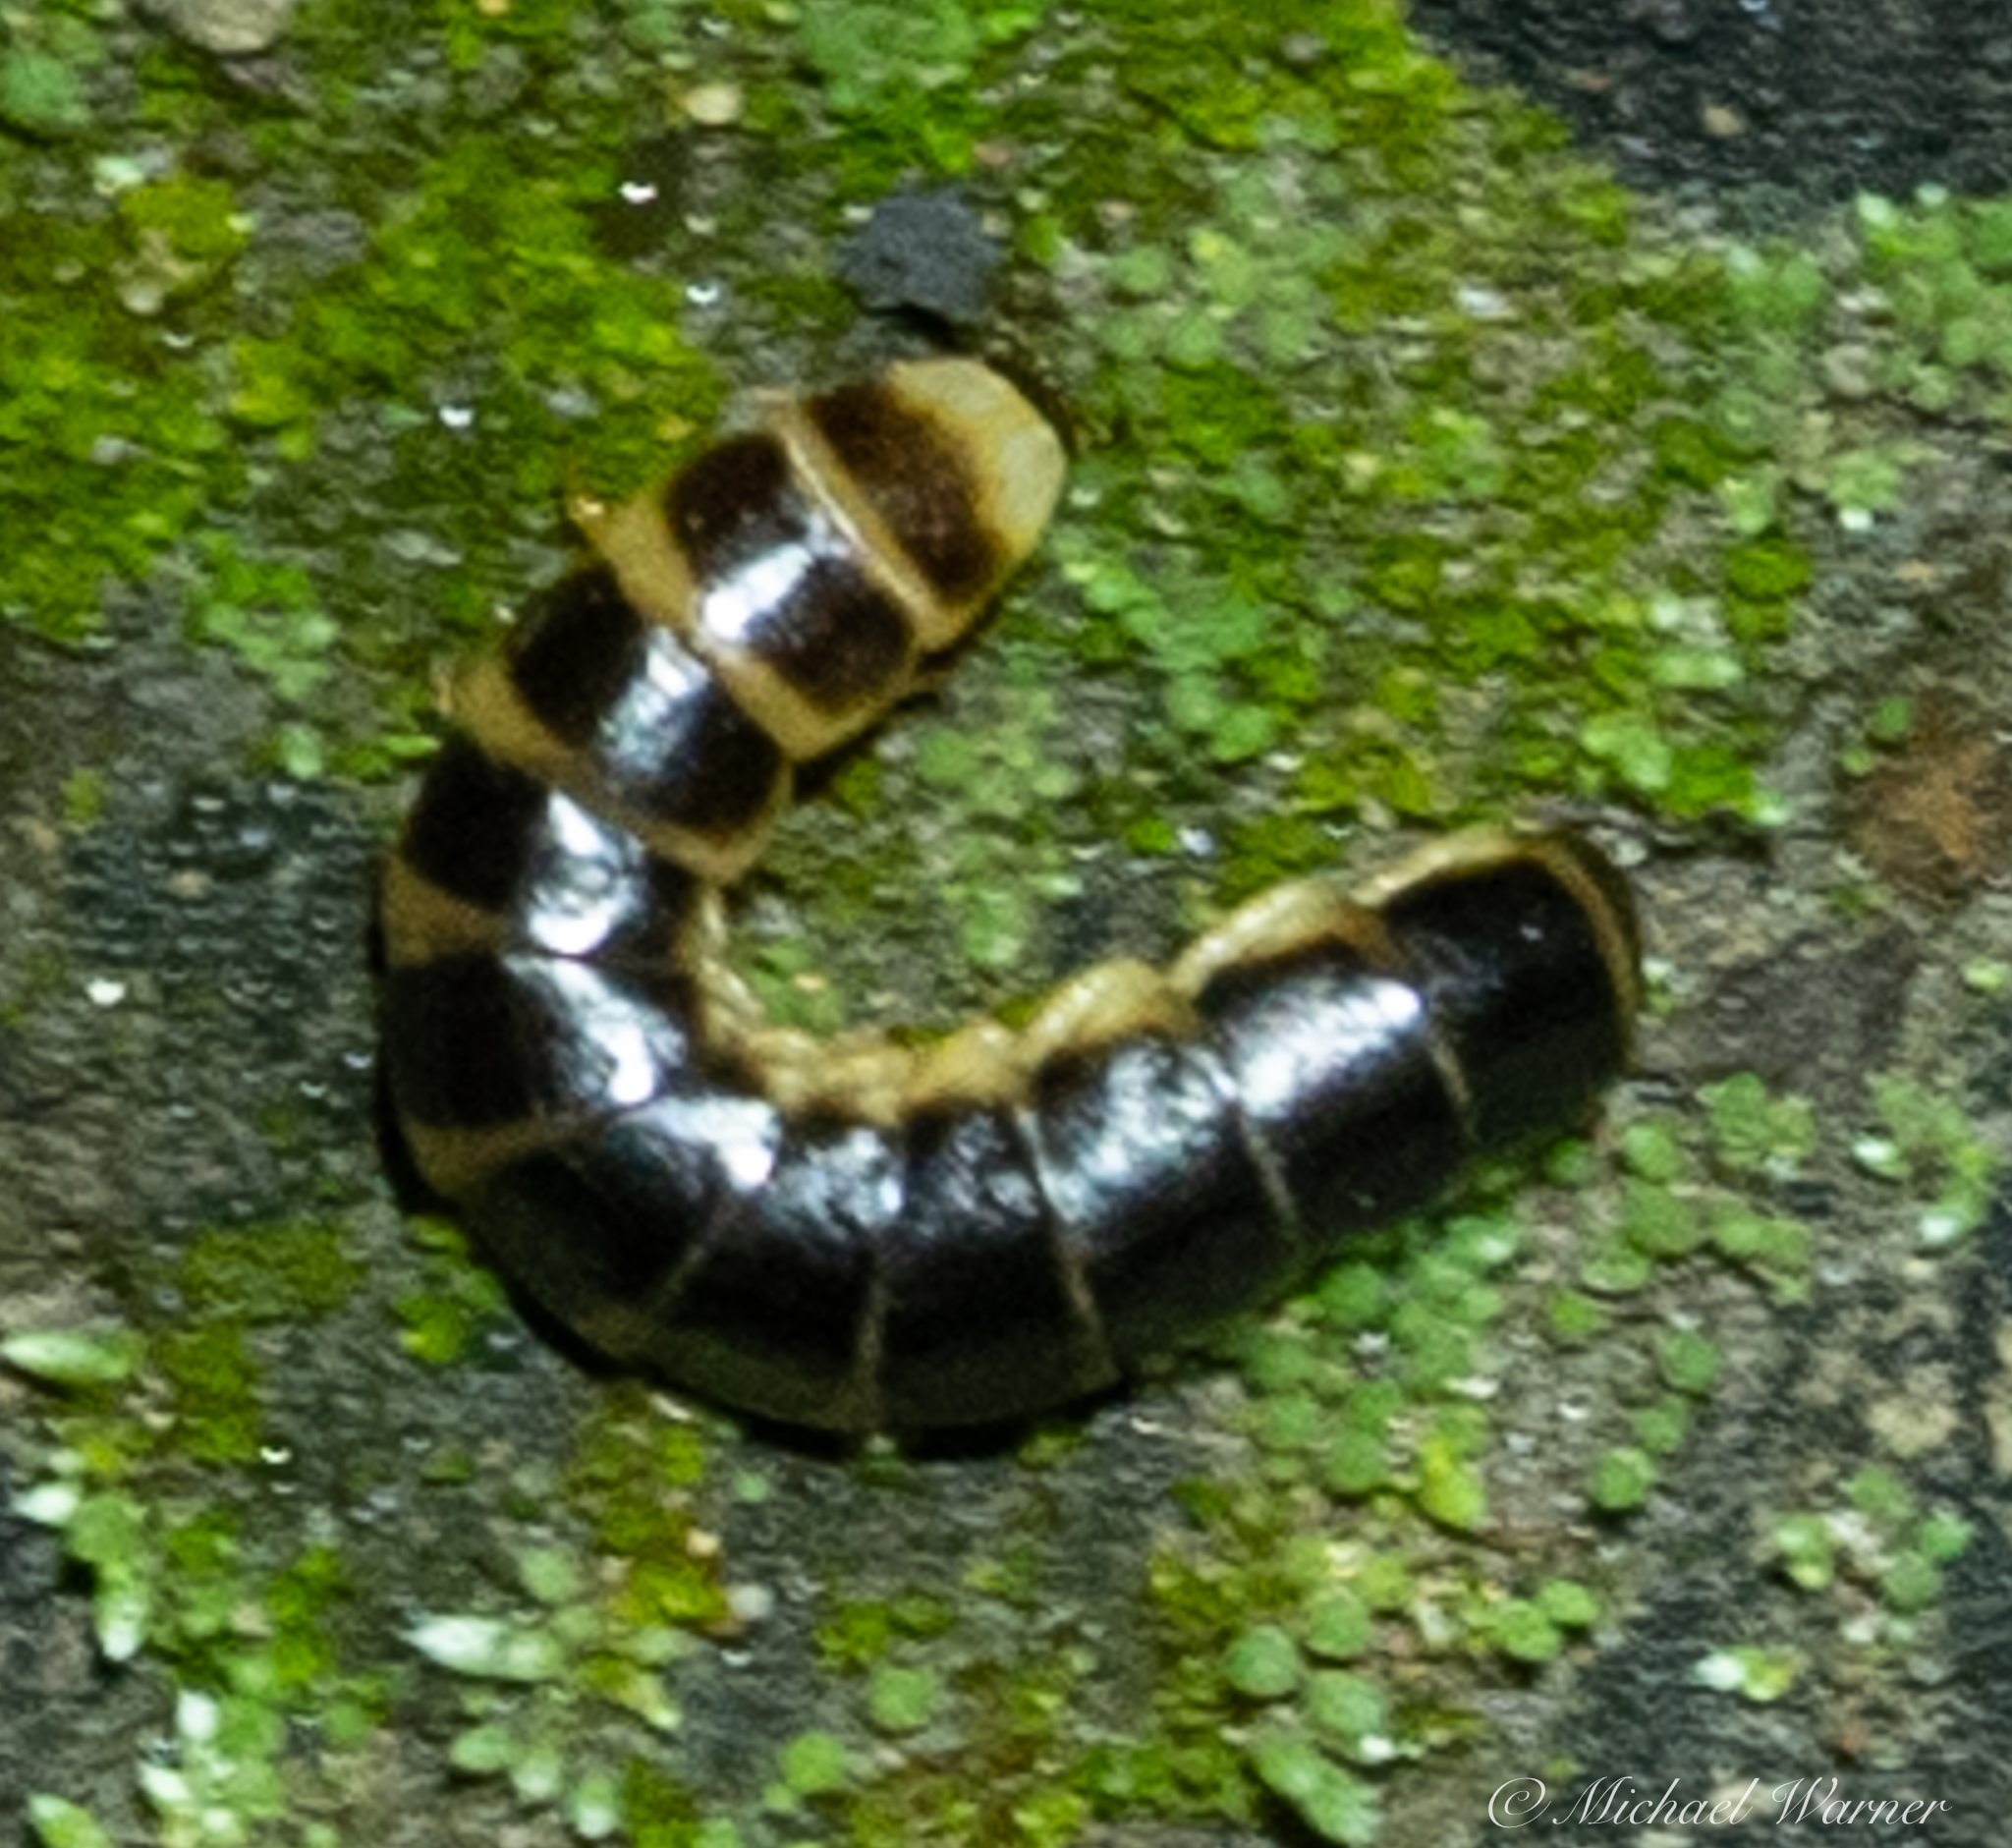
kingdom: Animalia
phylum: Arthropoda
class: Insecta
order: Coleoptera
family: Phengodidae
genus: Zarhipis
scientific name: Zarhipis integripennis
